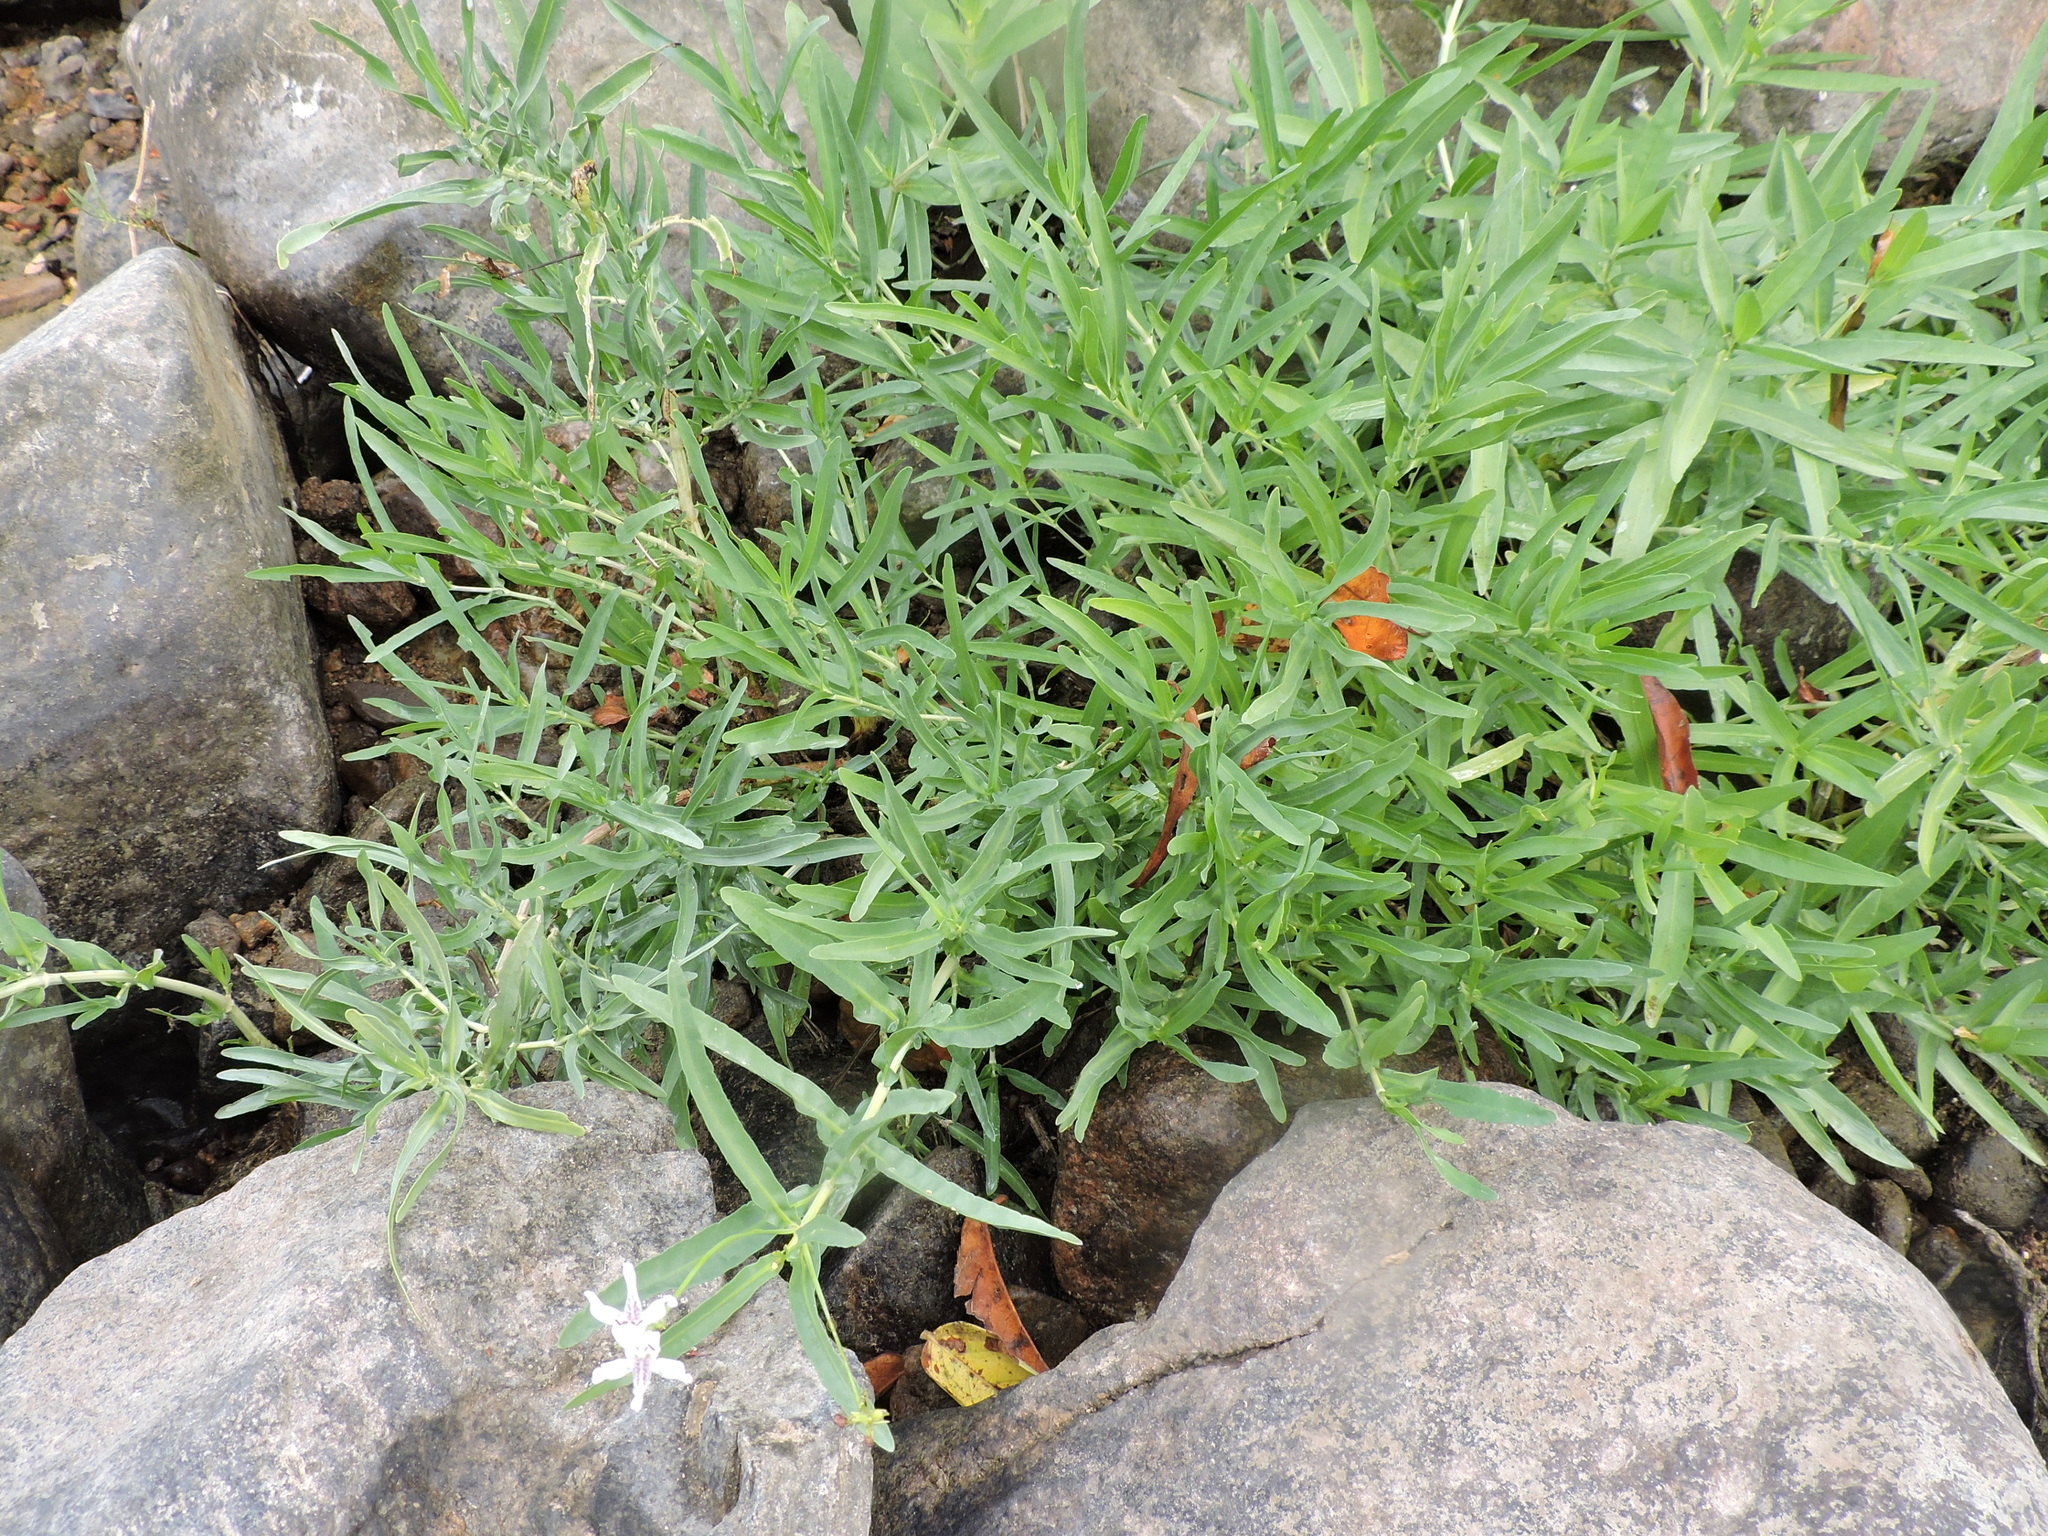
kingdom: Plantae
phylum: Tracheophyta
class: Magnoliopsida
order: Lamiales
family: Acanthaceae
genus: Dianthera
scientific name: Dianthera americana
